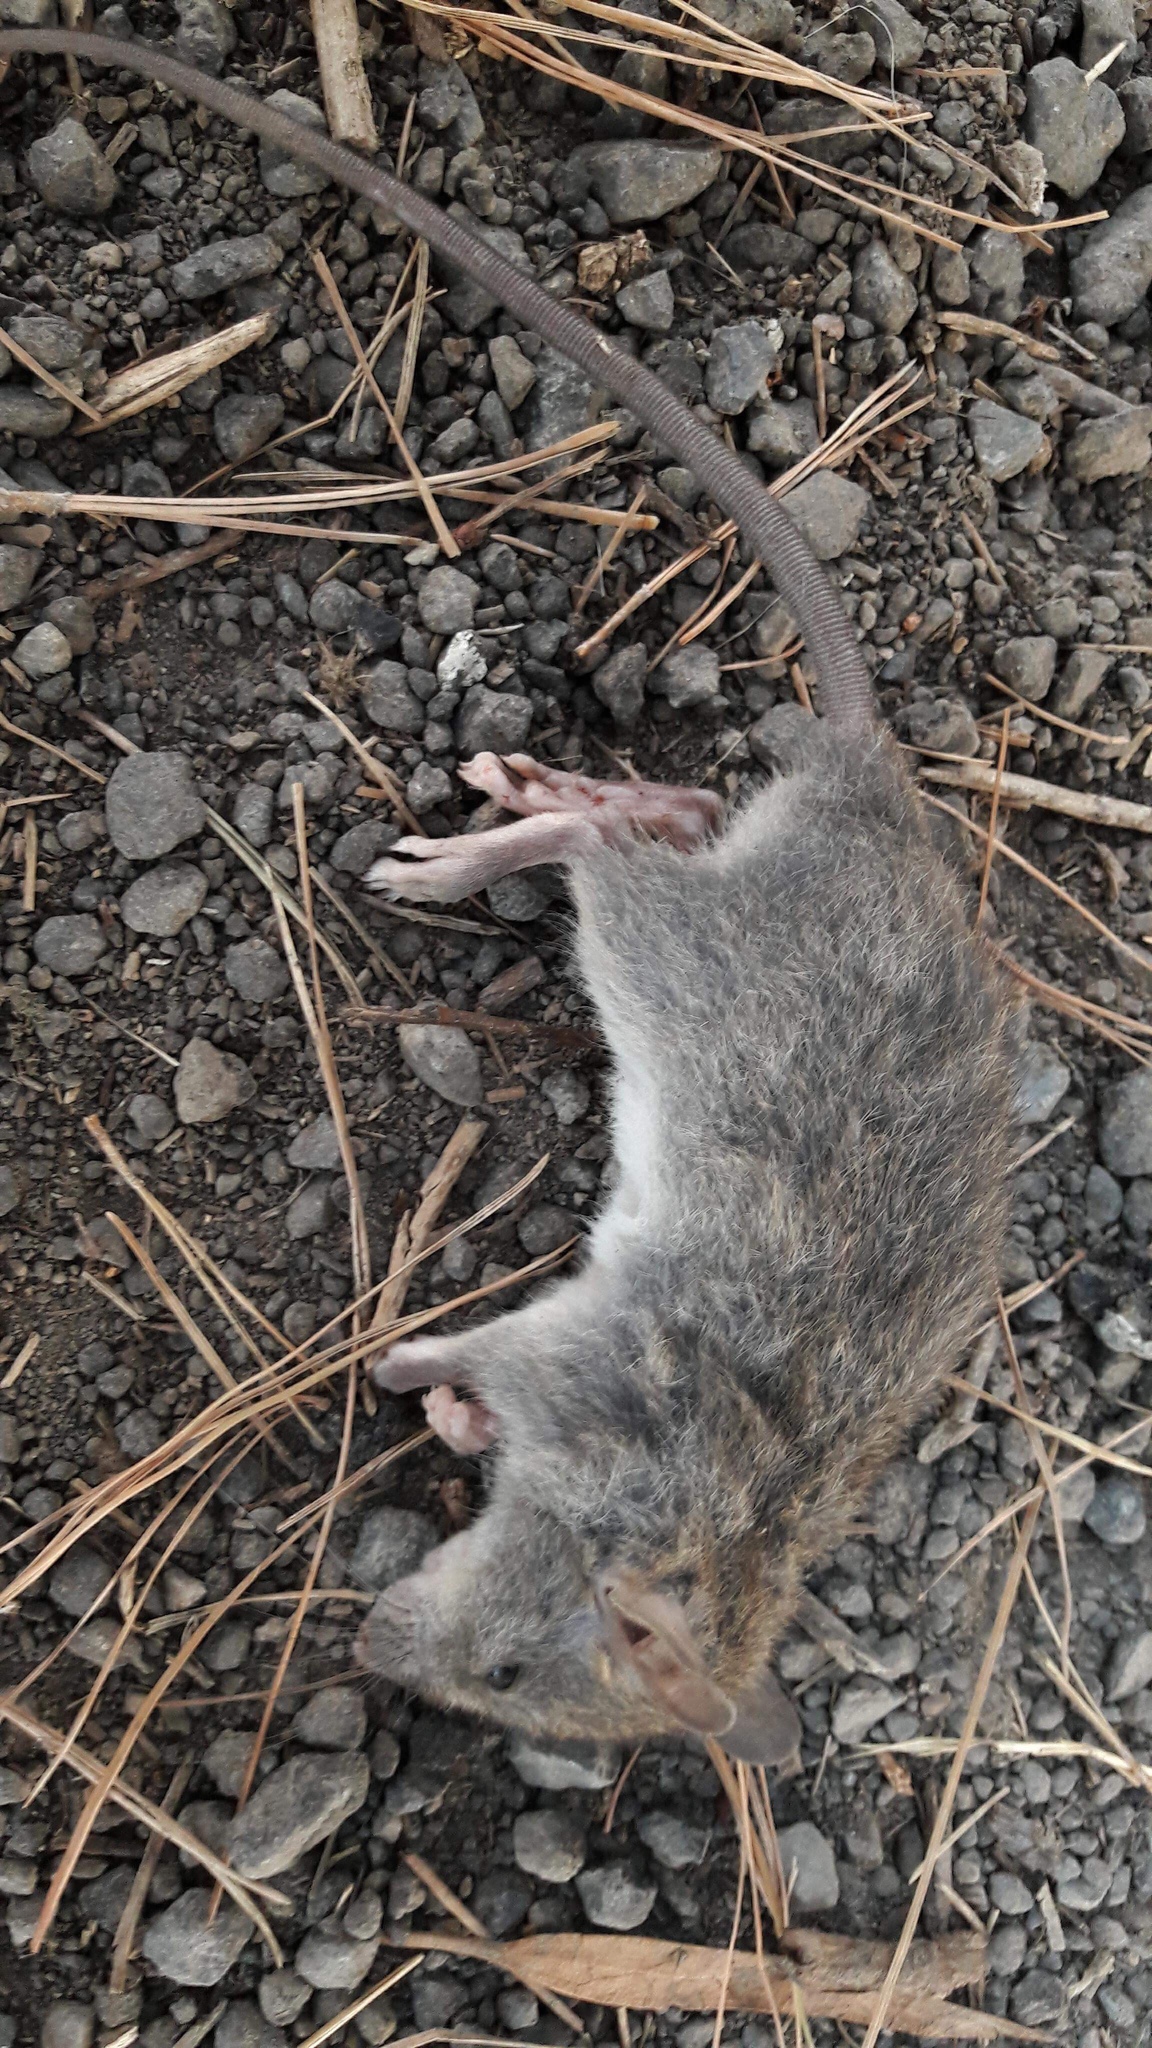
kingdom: Animalia
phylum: Chordata
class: Mammalia
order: Rodentia
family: Muridae
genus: Rattus
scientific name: Rattus rattus
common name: Black rat
